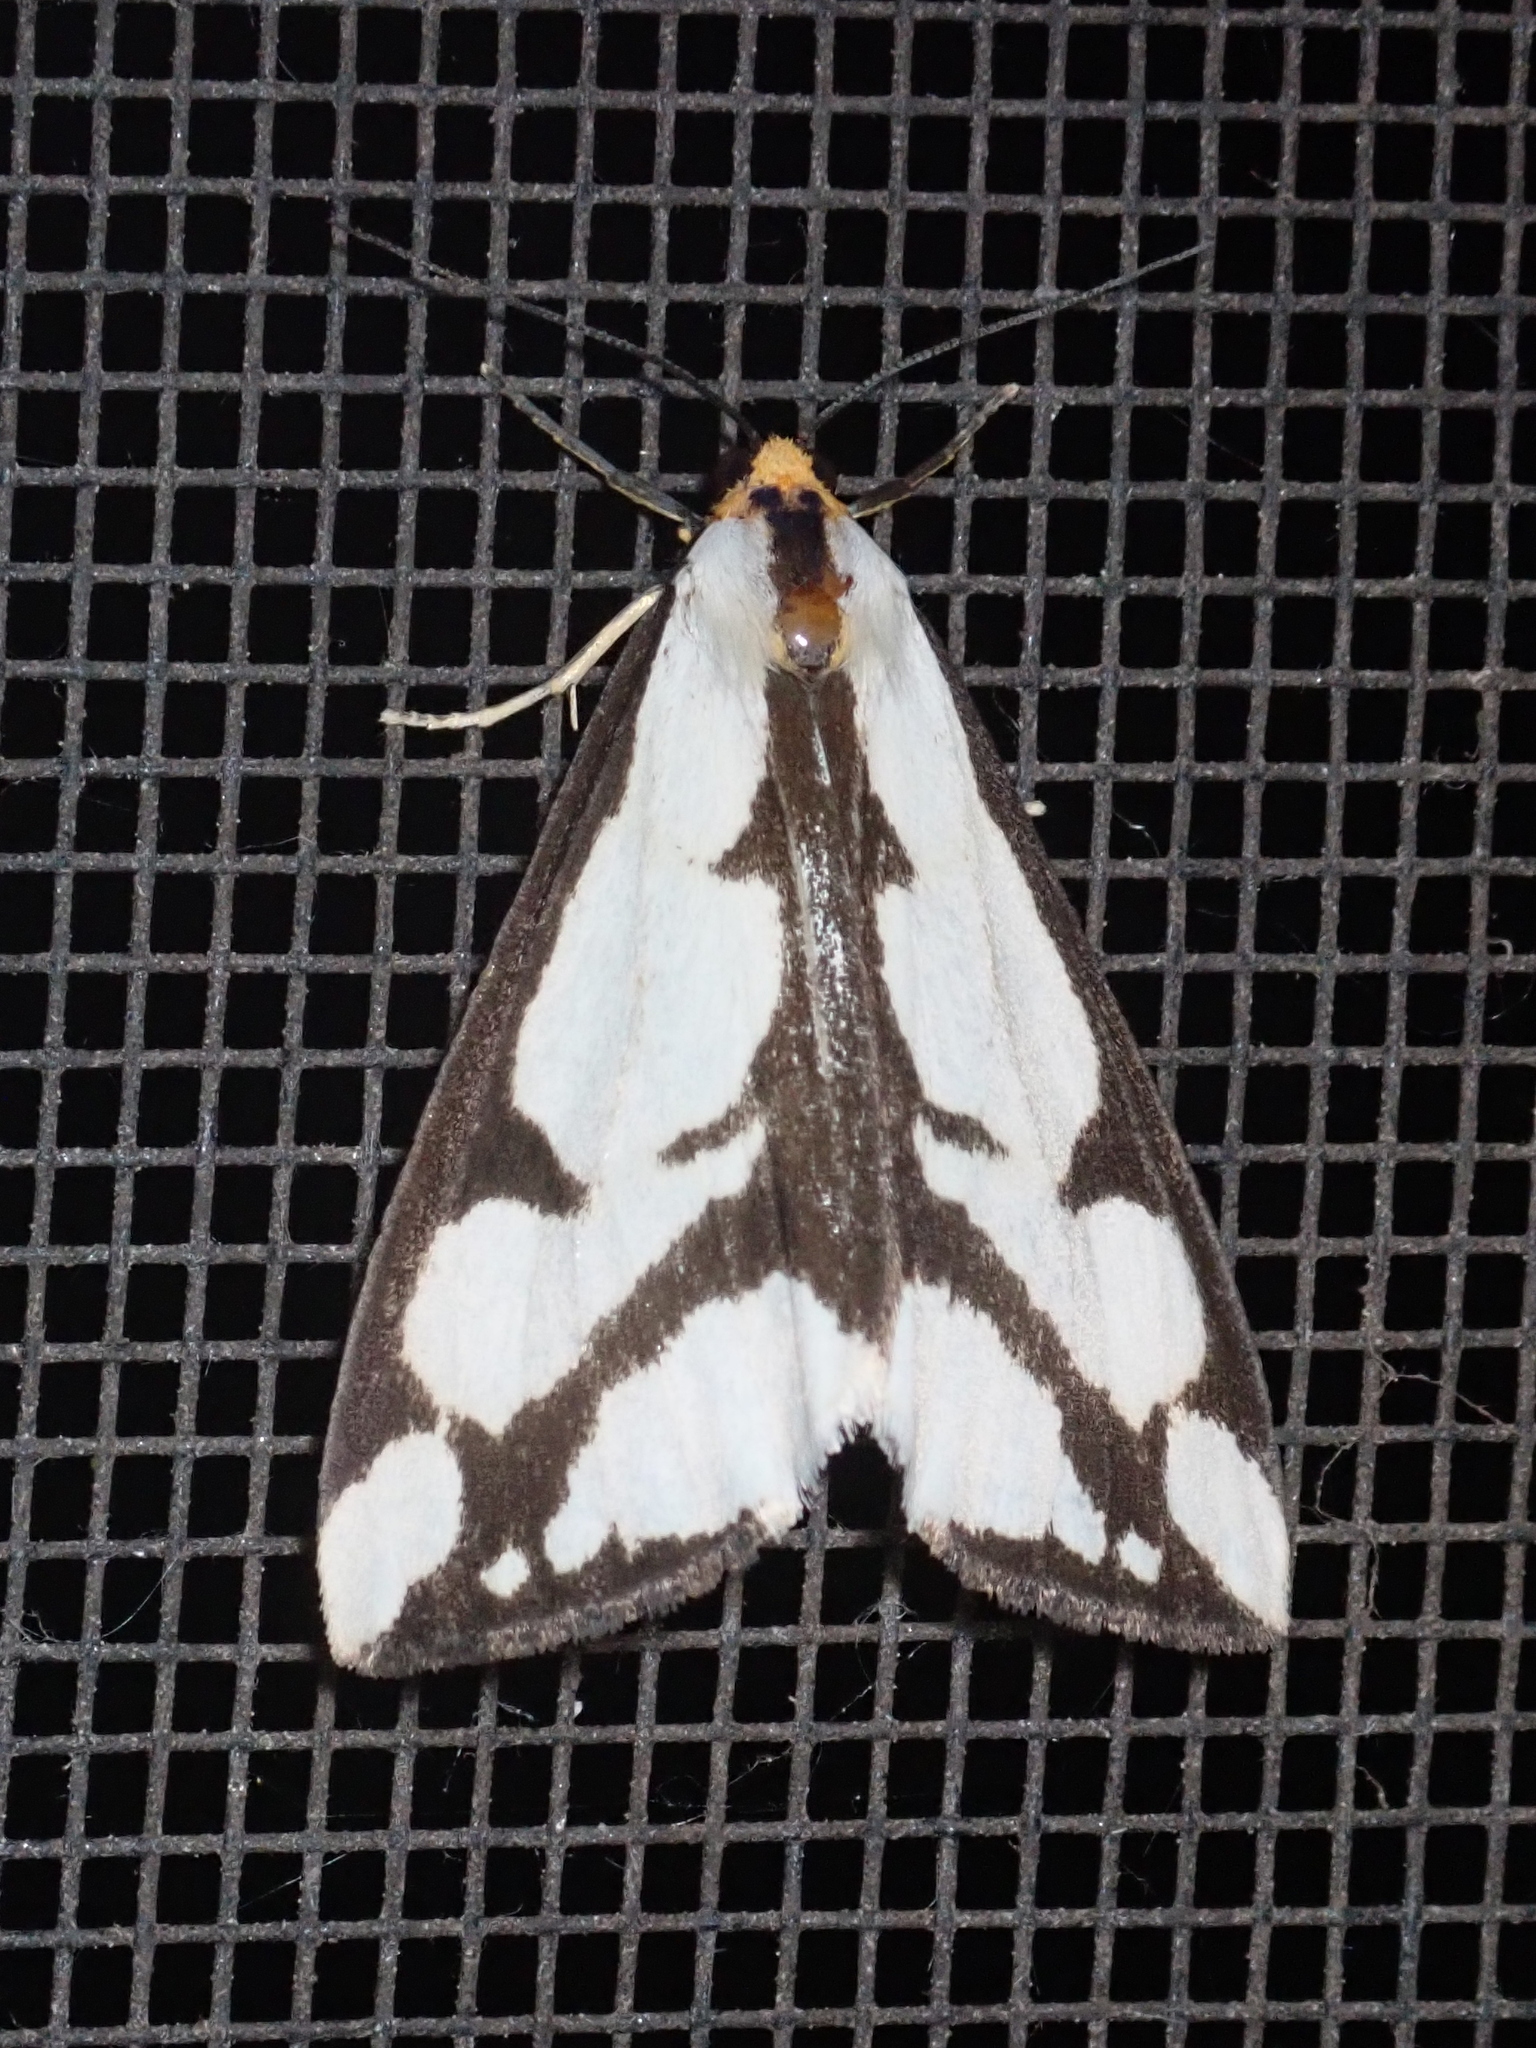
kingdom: Animalia
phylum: Arthropoda
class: Insecta
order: Lepidoptera
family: Erebidae
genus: Haploa
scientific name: Haploa lecontei
